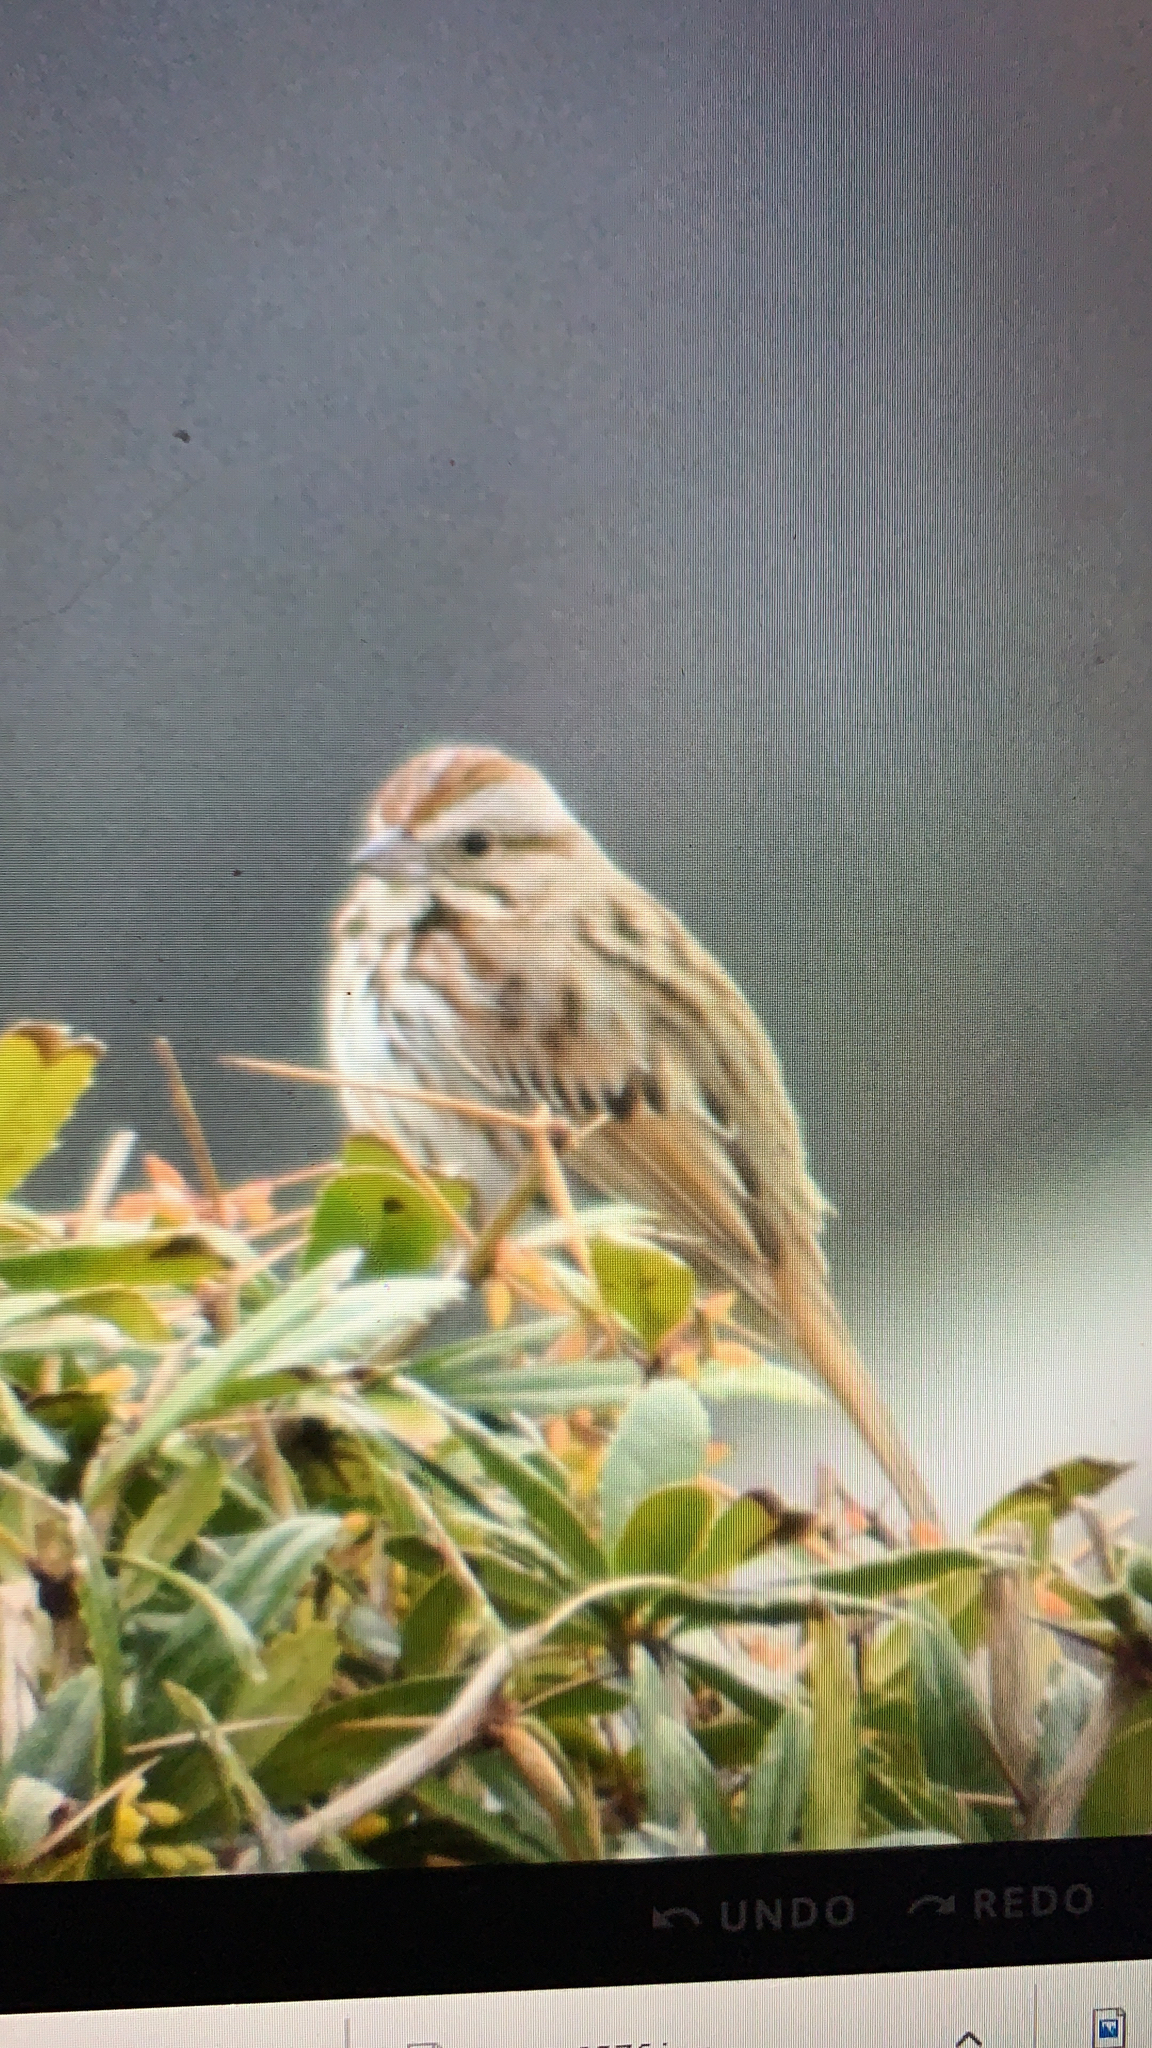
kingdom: Animalia
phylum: Chordata
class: Aves
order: Passeriformes
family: Passerellidae
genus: Melospiza
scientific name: Melospiza melodia
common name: Song sparrow
